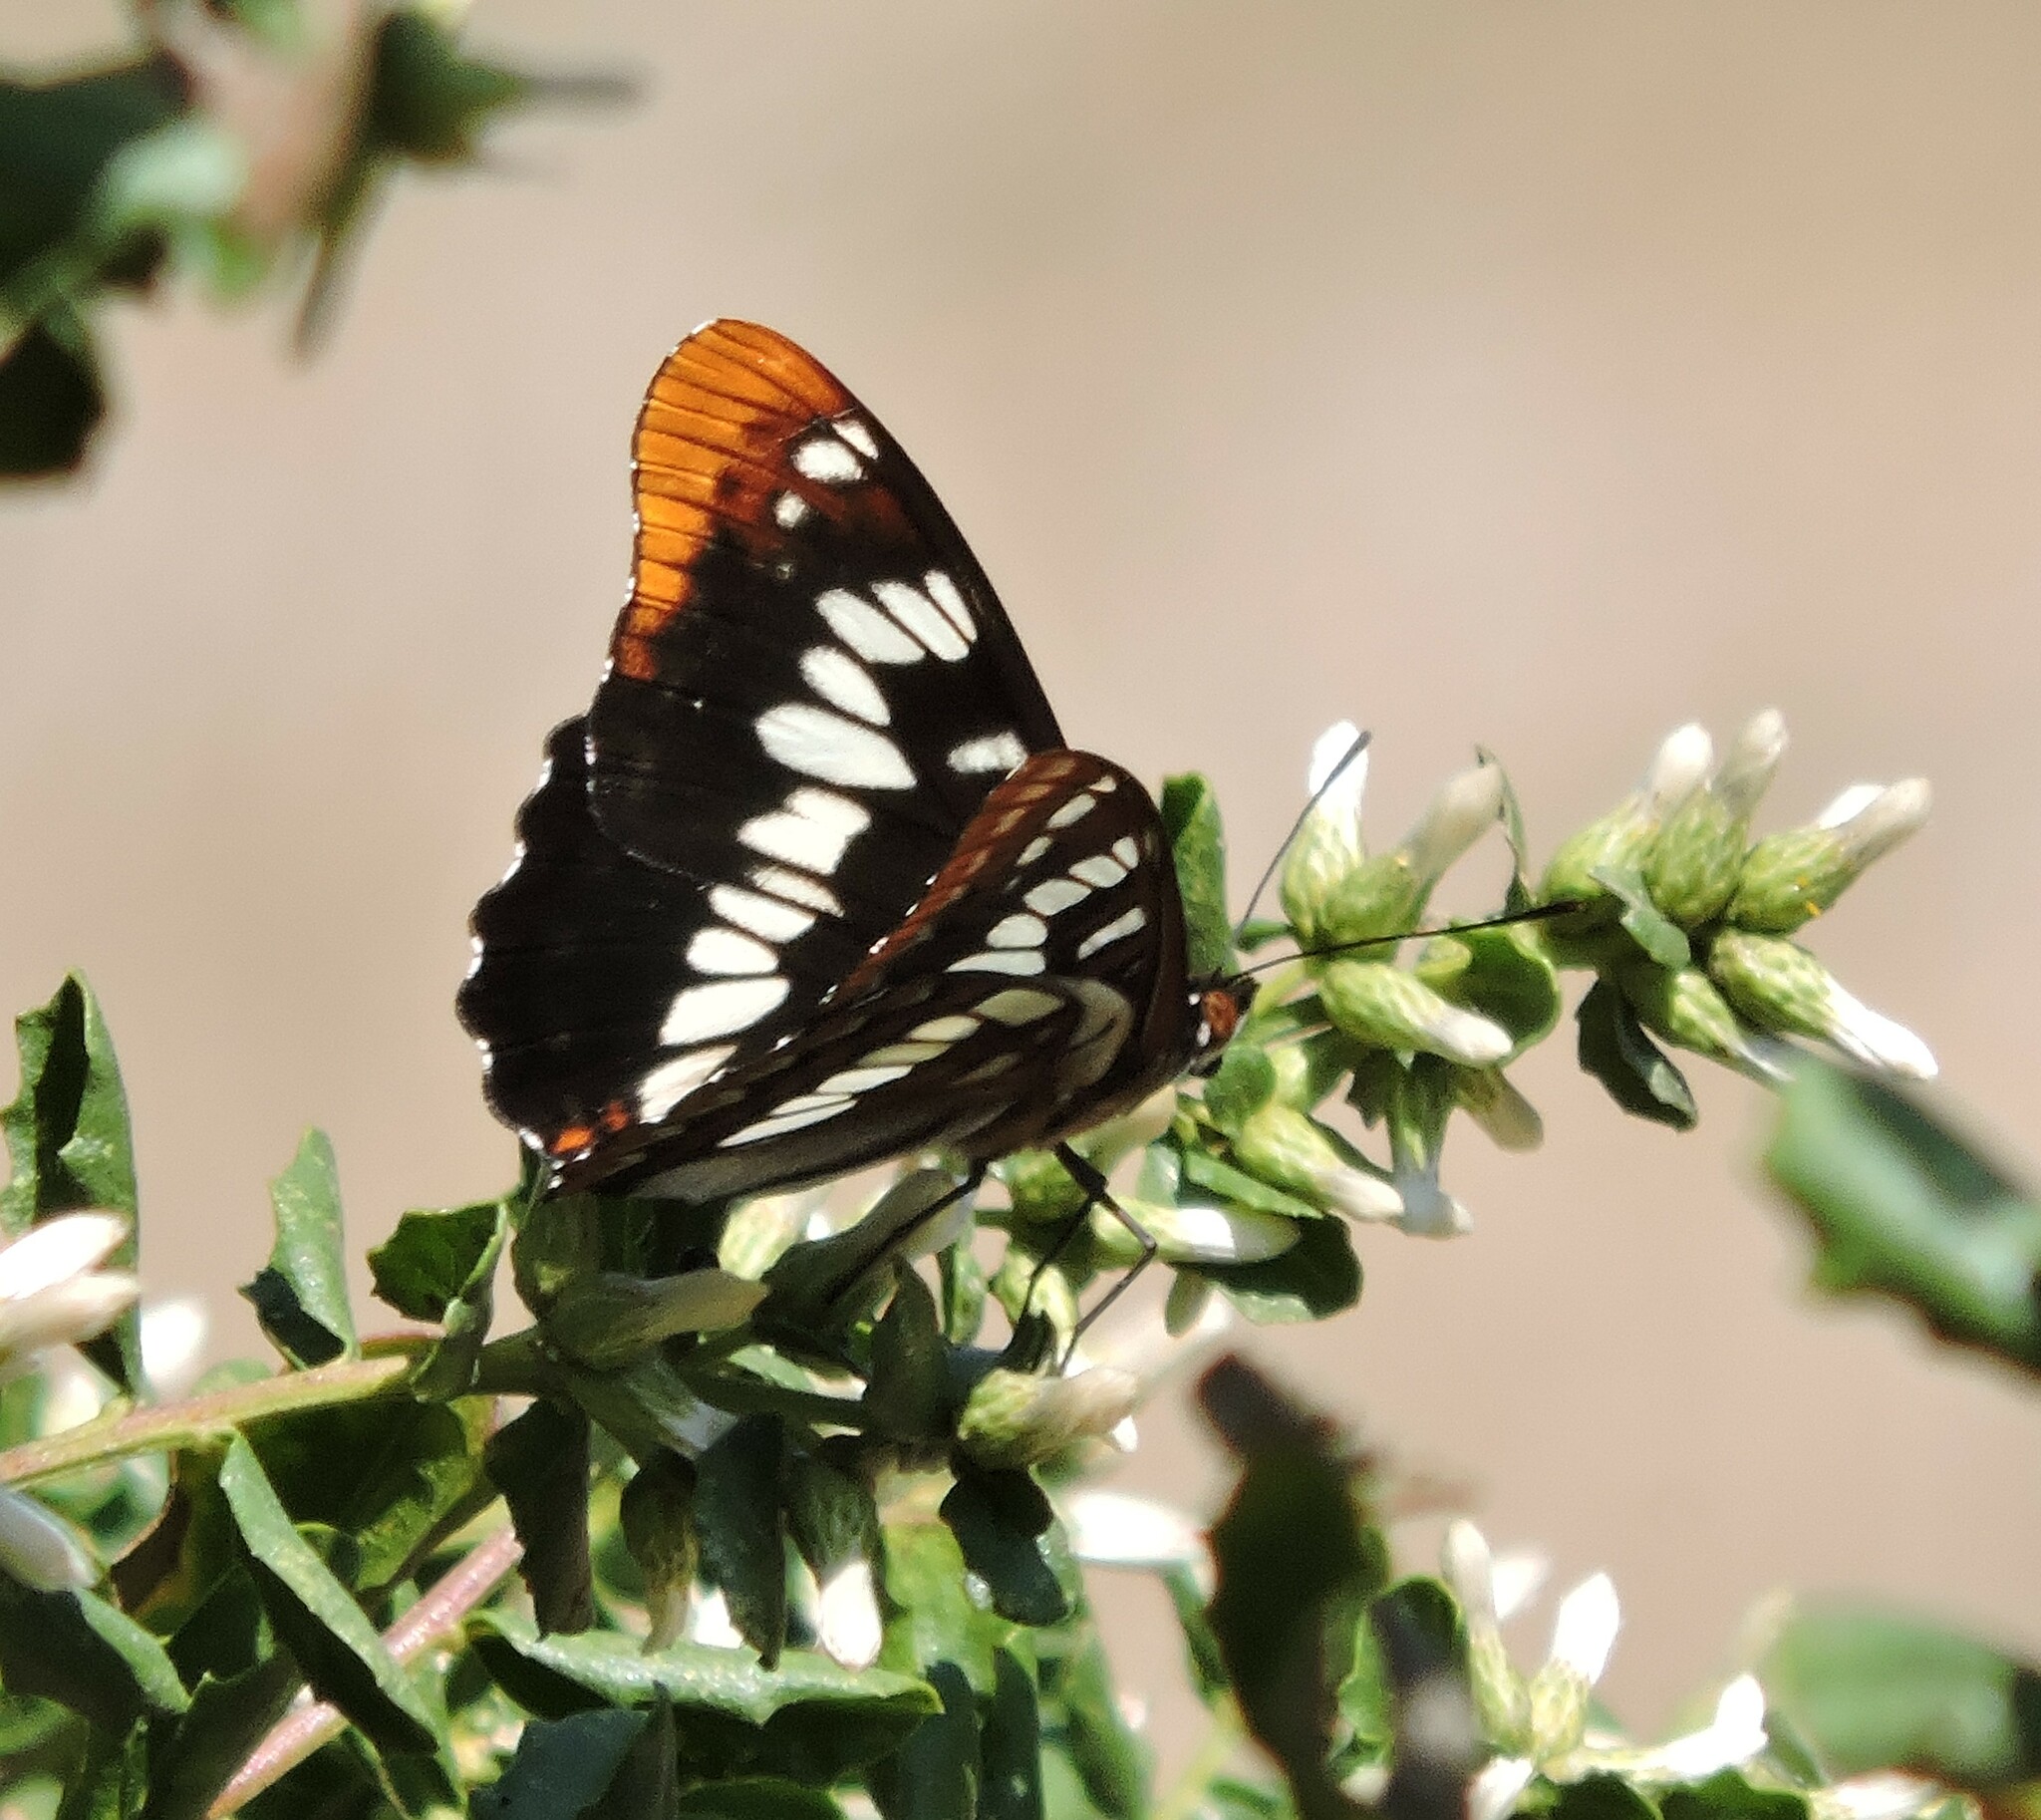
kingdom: Animalia
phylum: Arthropoda
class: Insecta
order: Lepidoptera
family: Nymphalidae
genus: Limenitis
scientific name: Limenitis lorquini
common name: Lorquin's admiral
